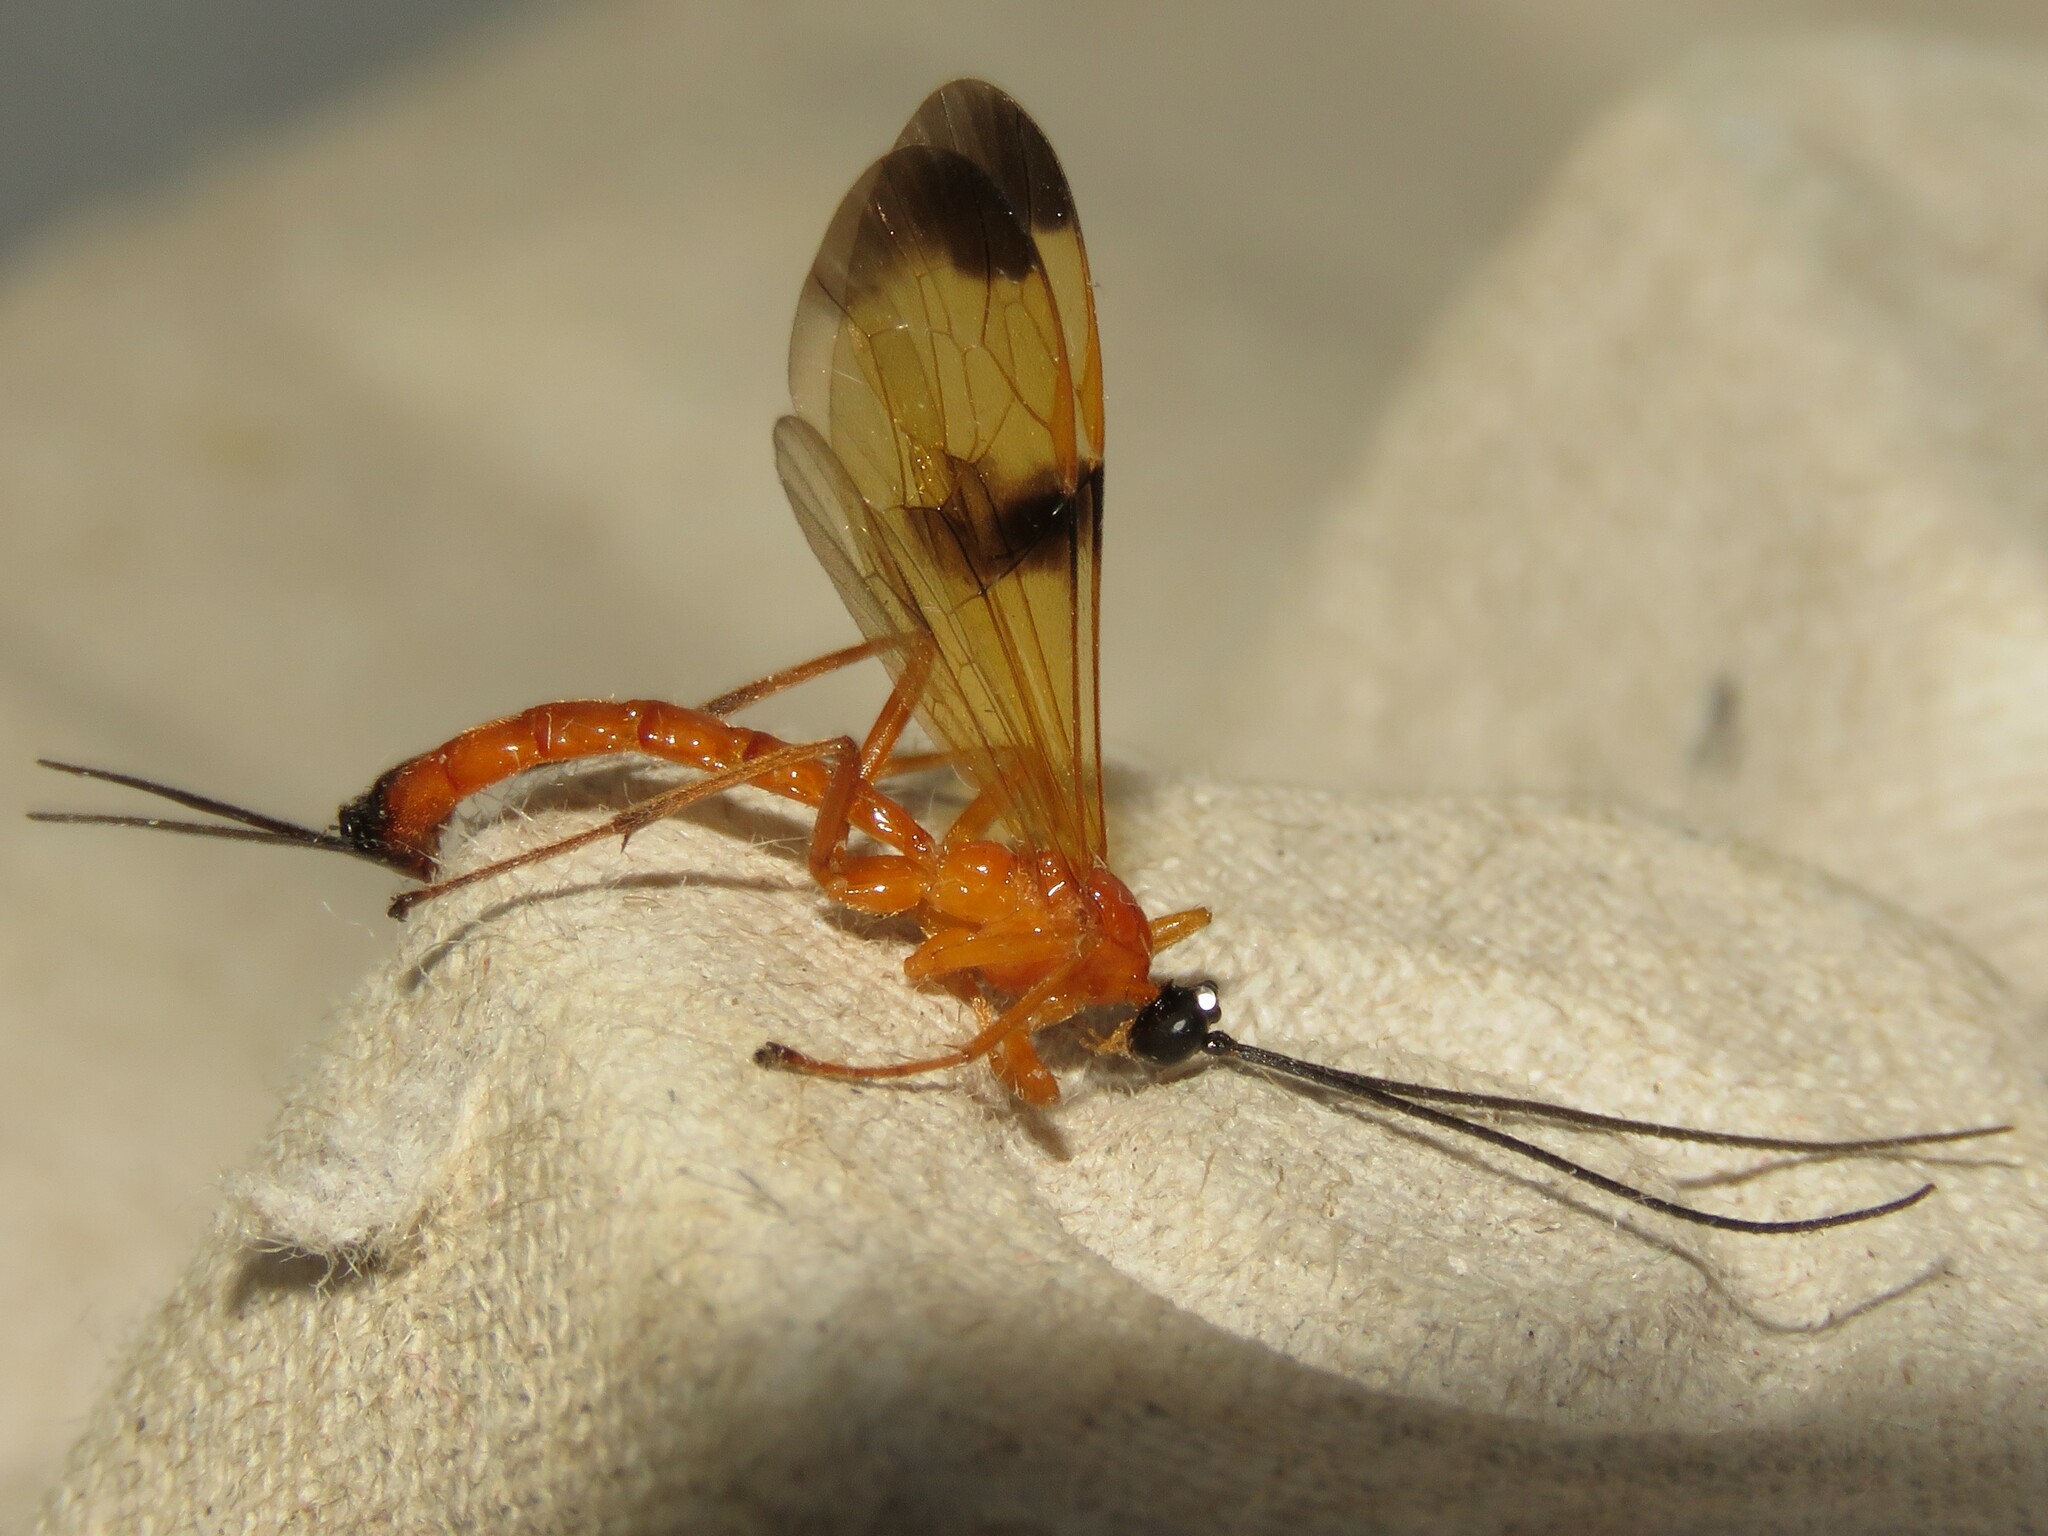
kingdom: Animalia
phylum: Arthropoda
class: Insecta
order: Hymenoptera
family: Ichneumonidae
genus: Acrotaphus
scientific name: Acrotaphus wiltii
